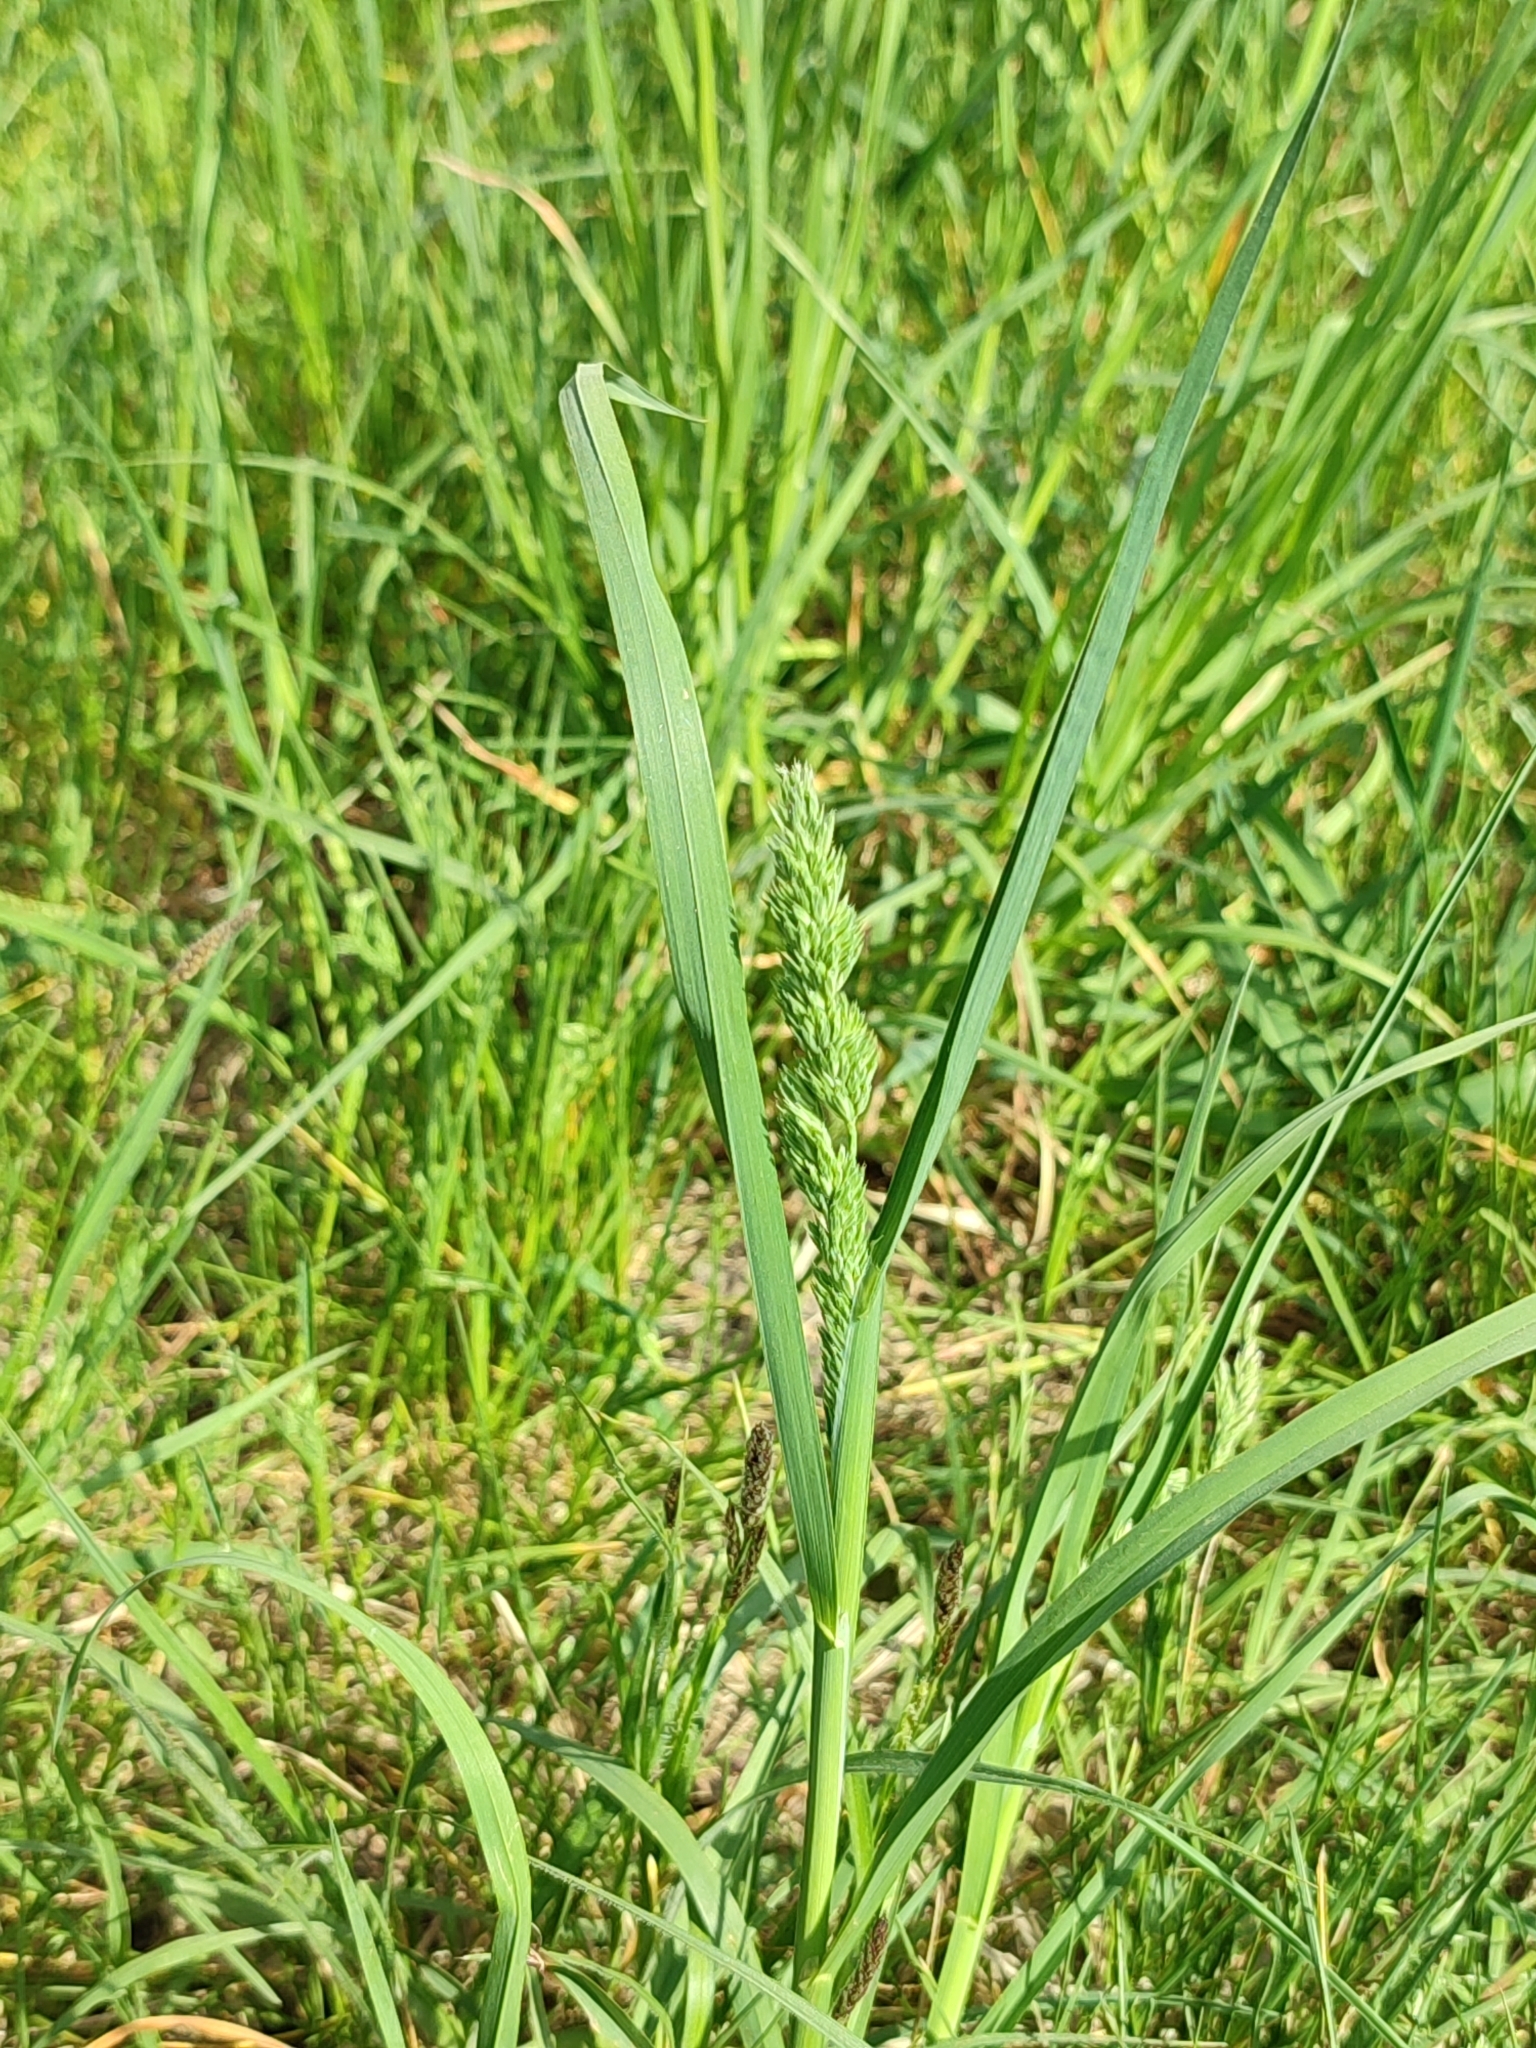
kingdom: Plantae
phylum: Tracheophyta
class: Liliopsida
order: Poales
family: Poaceae
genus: Dactylis
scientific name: Dactylis glomerata
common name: Orchardgrass
